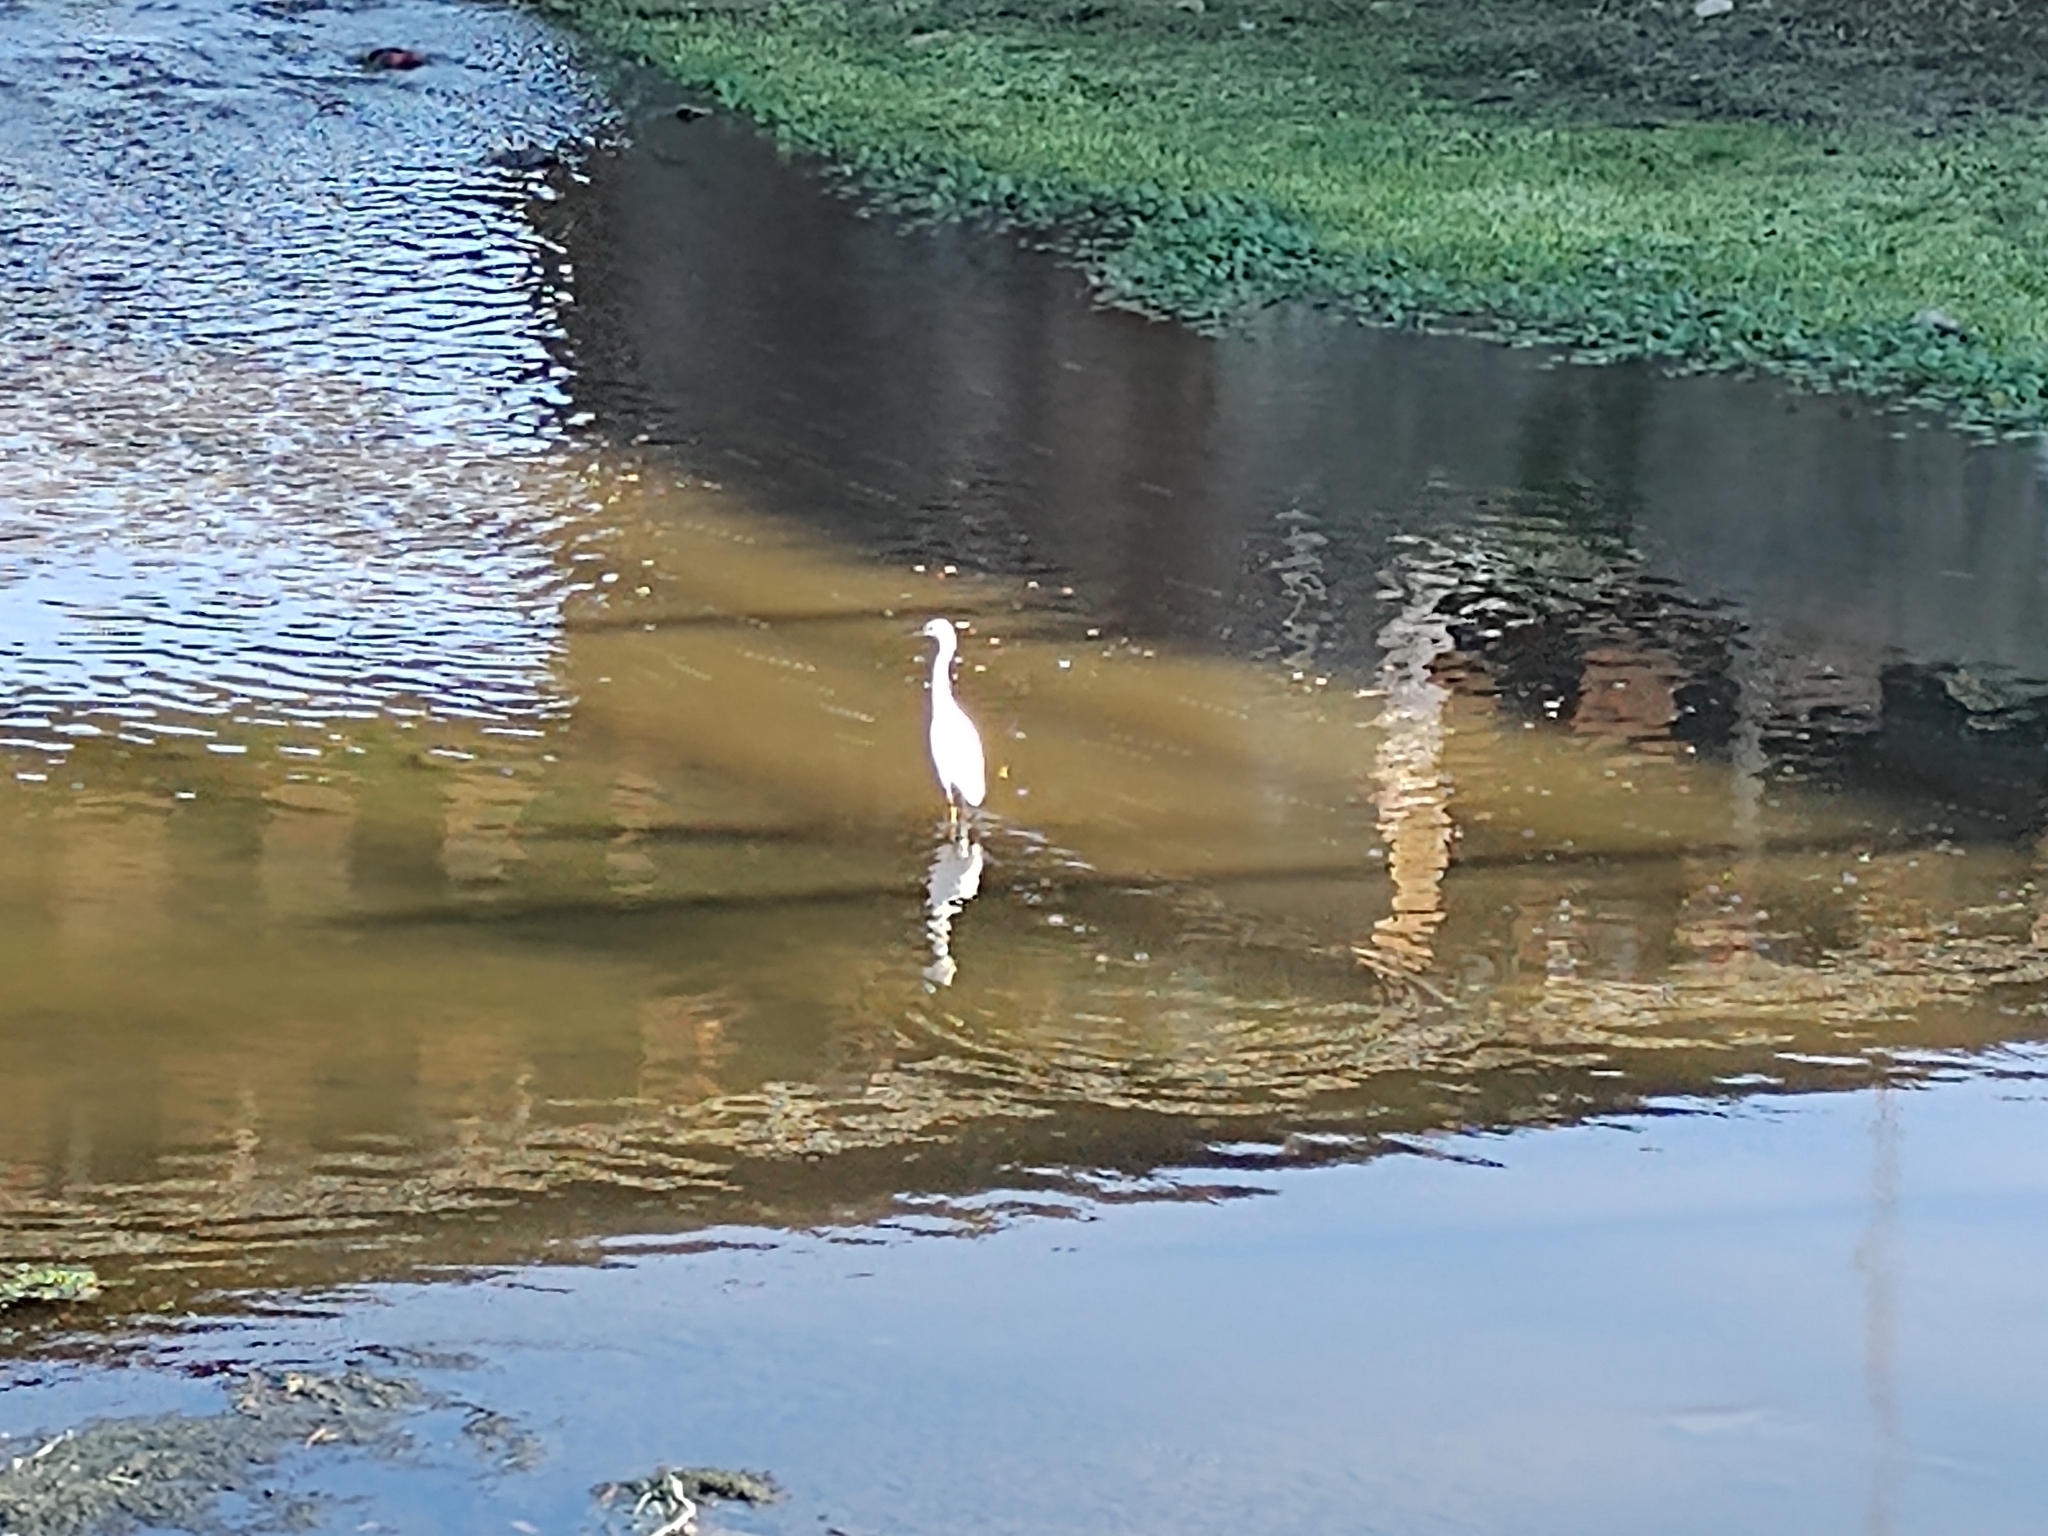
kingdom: Animalia
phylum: Chordata
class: Aves
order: Pelecaniformes
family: Ardeidae
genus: Egretta
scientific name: Egretta thula
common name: Snowy egret
